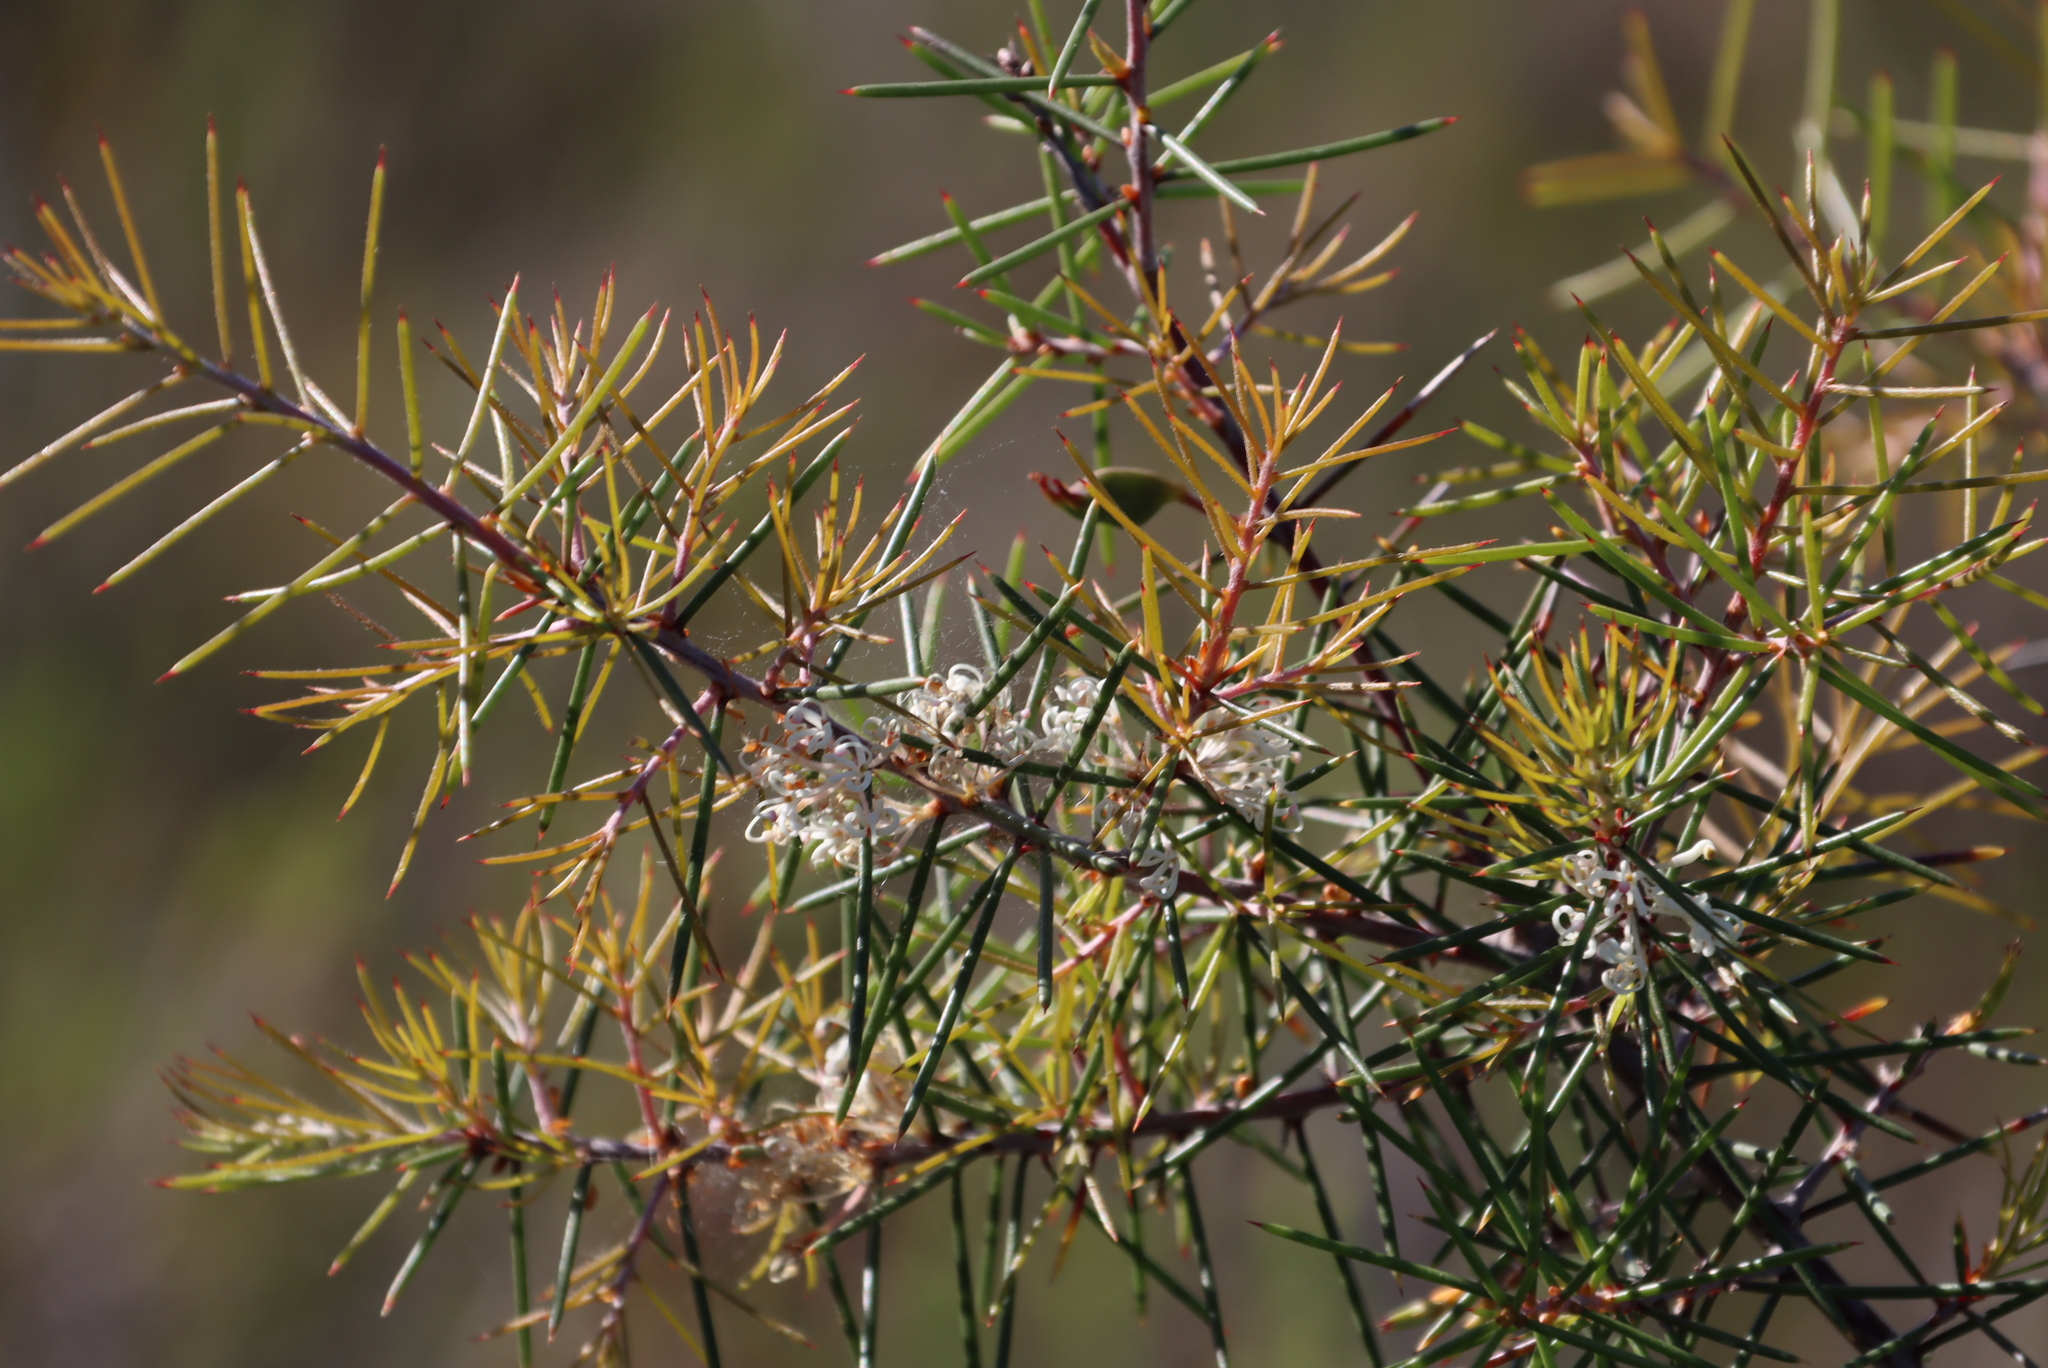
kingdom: Plantae
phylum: Tracheophyta
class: Magnoliopsida
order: Proteales
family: Proteaceae
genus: Hakea
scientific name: Hakea sericea
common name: Needle bush
